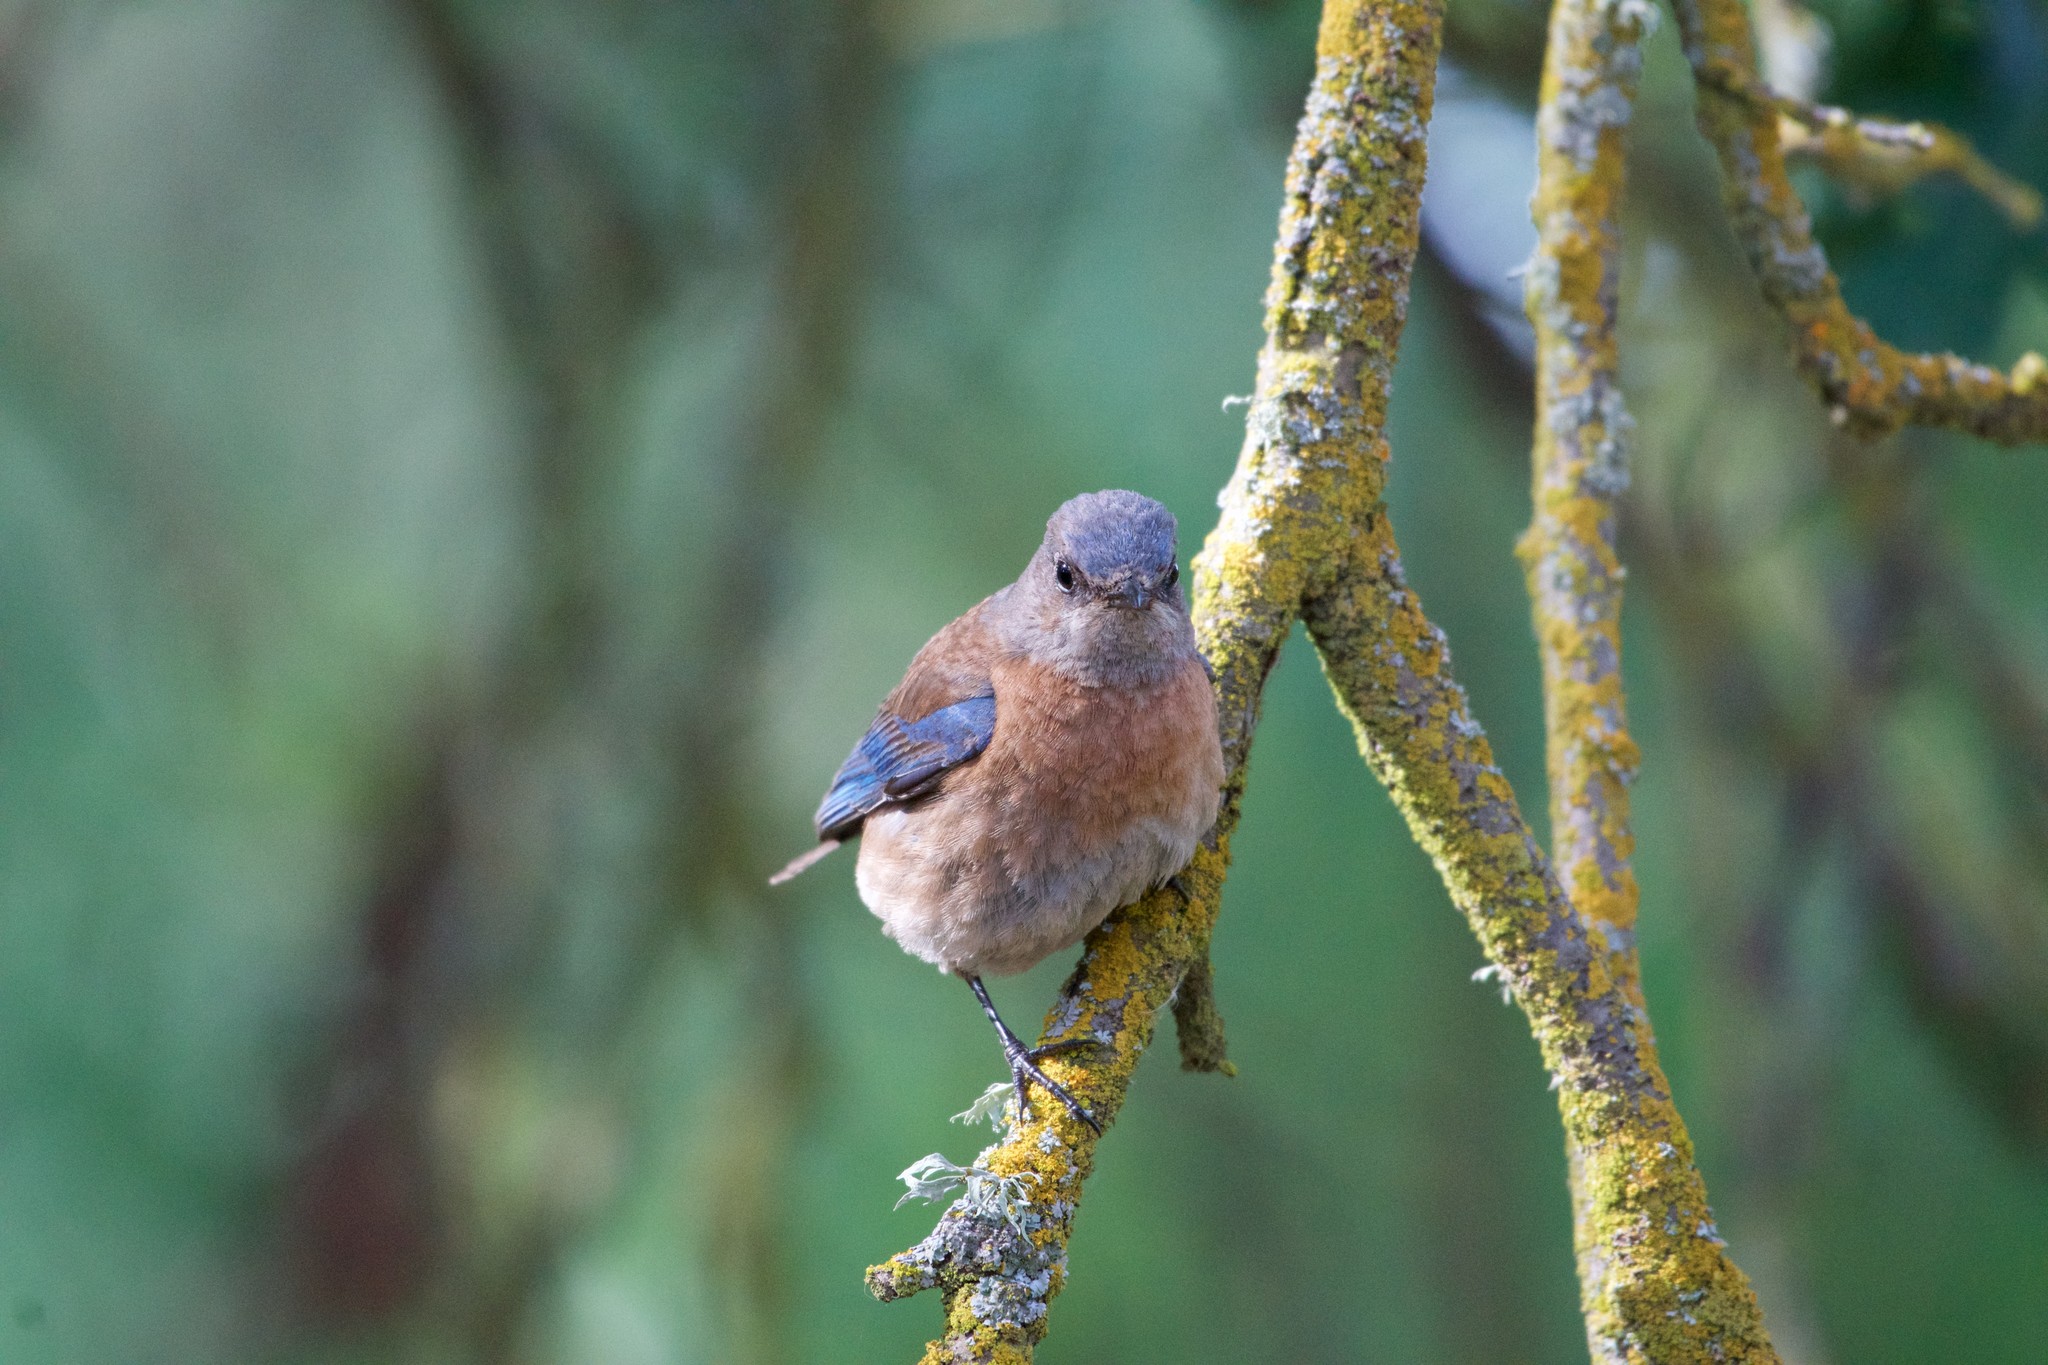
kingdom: Animalia
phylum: Chordata
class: Aves
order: Passeriformes
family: Turdidae
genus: Sialia
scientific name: Sialia mexicana
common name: Western bluebird
